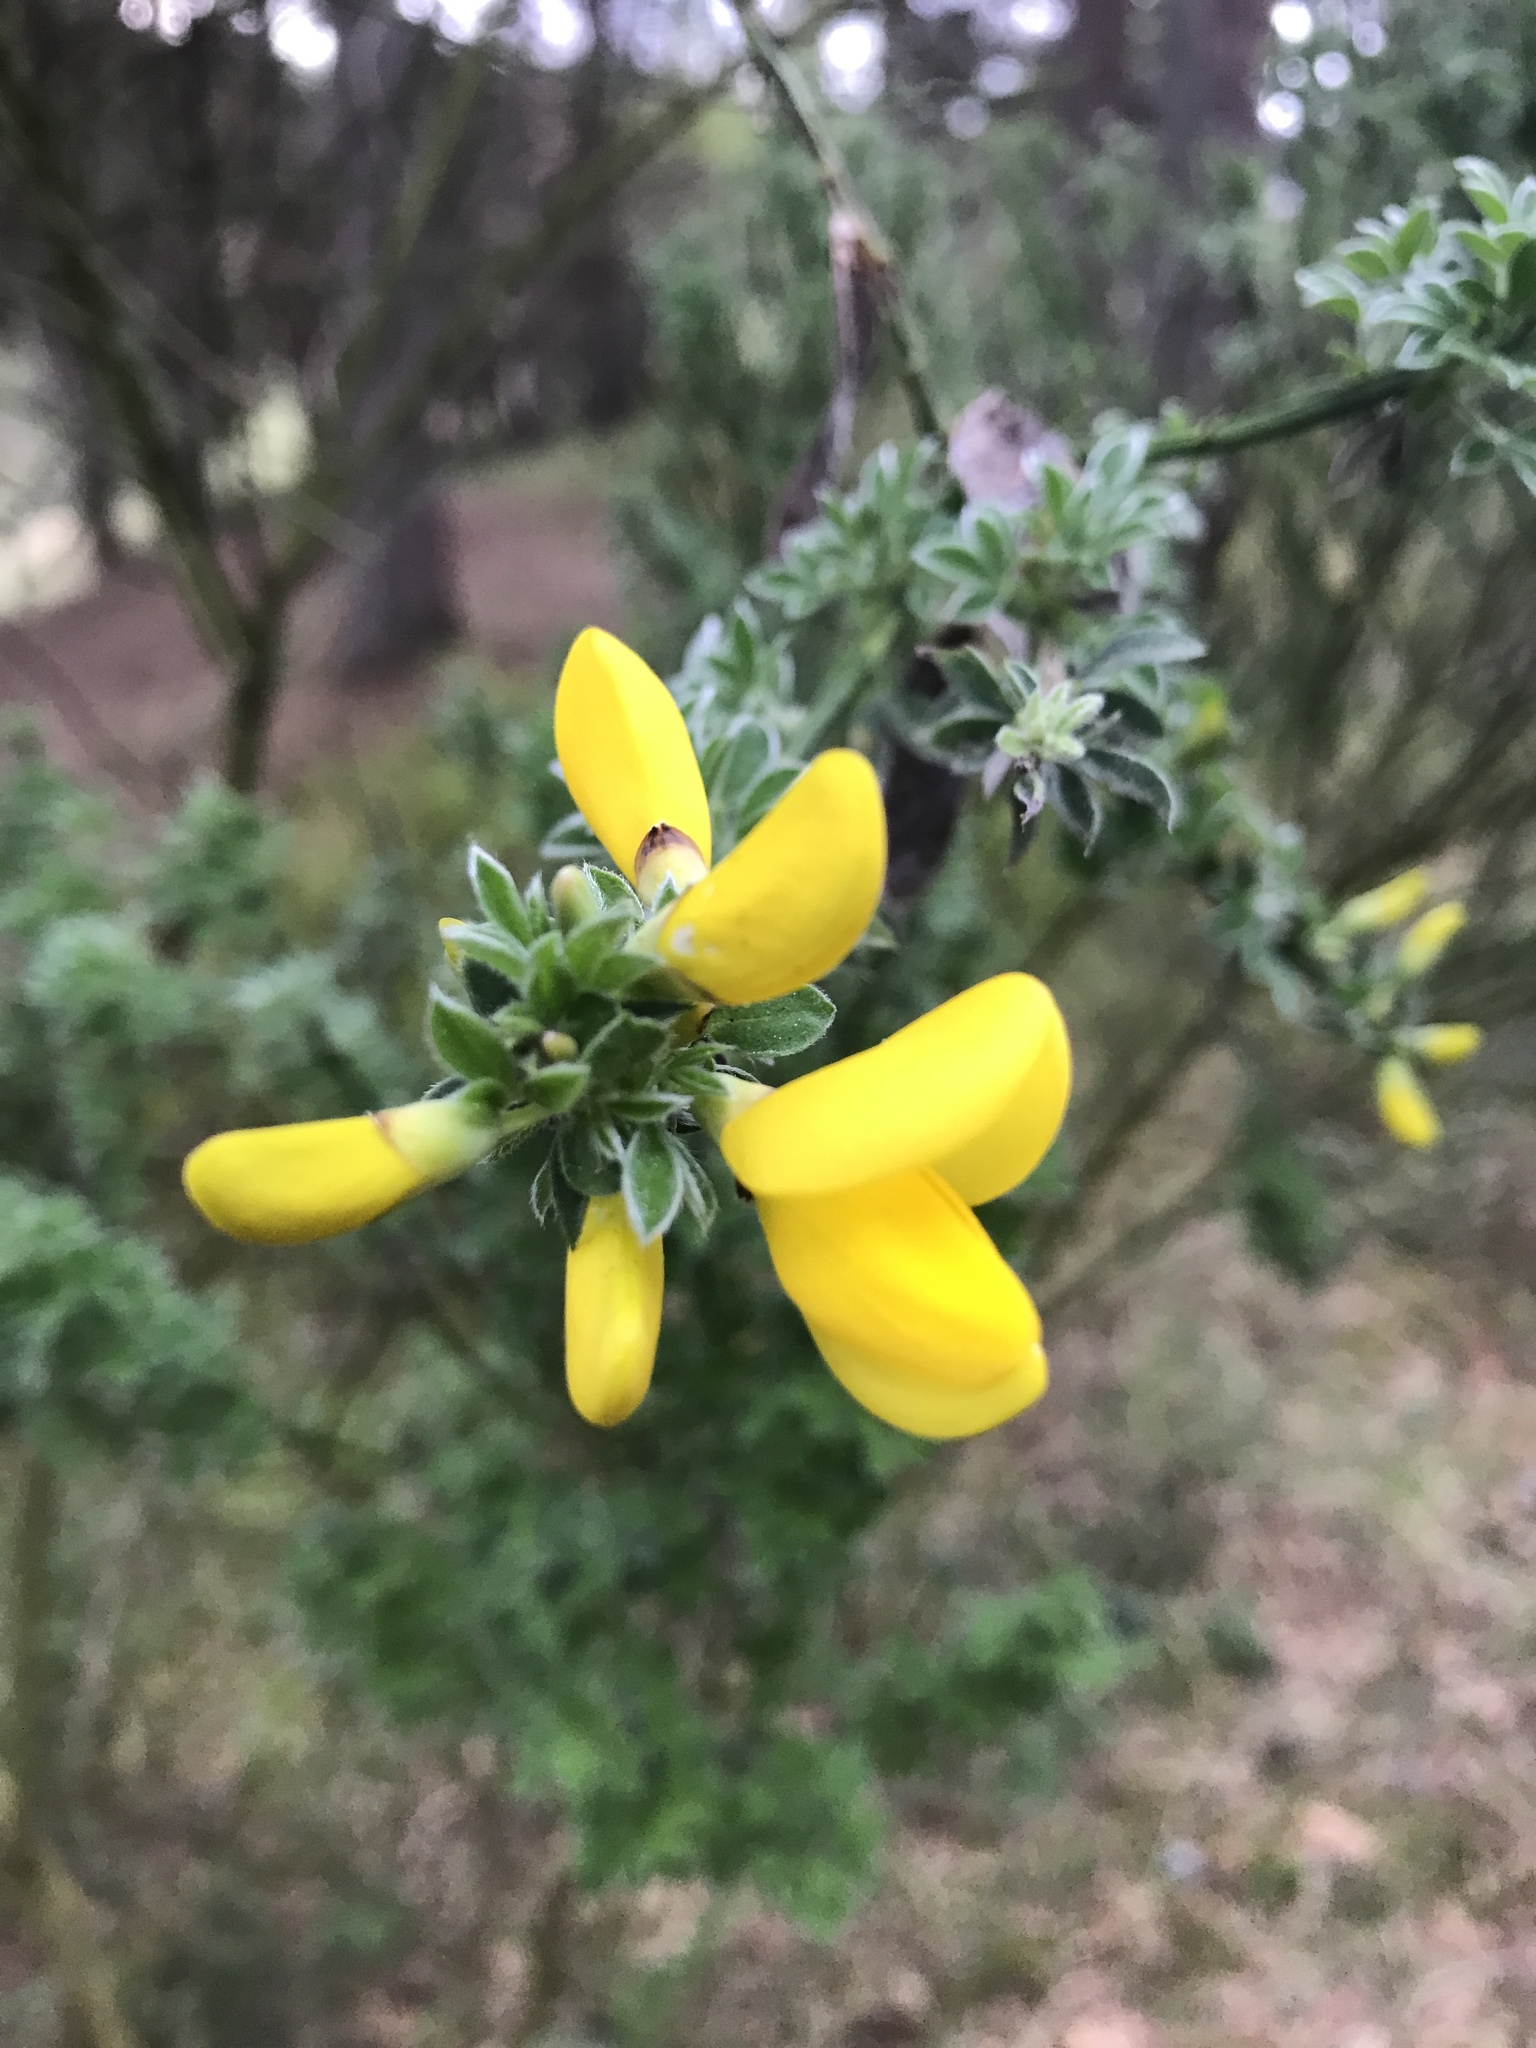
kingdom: Plantae
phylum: Tracheophyta
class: Magnoliopsida
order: Fabales
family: Fabaceae
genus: Cytisus
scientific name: Cytisus scoparius
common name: Scotch broom
